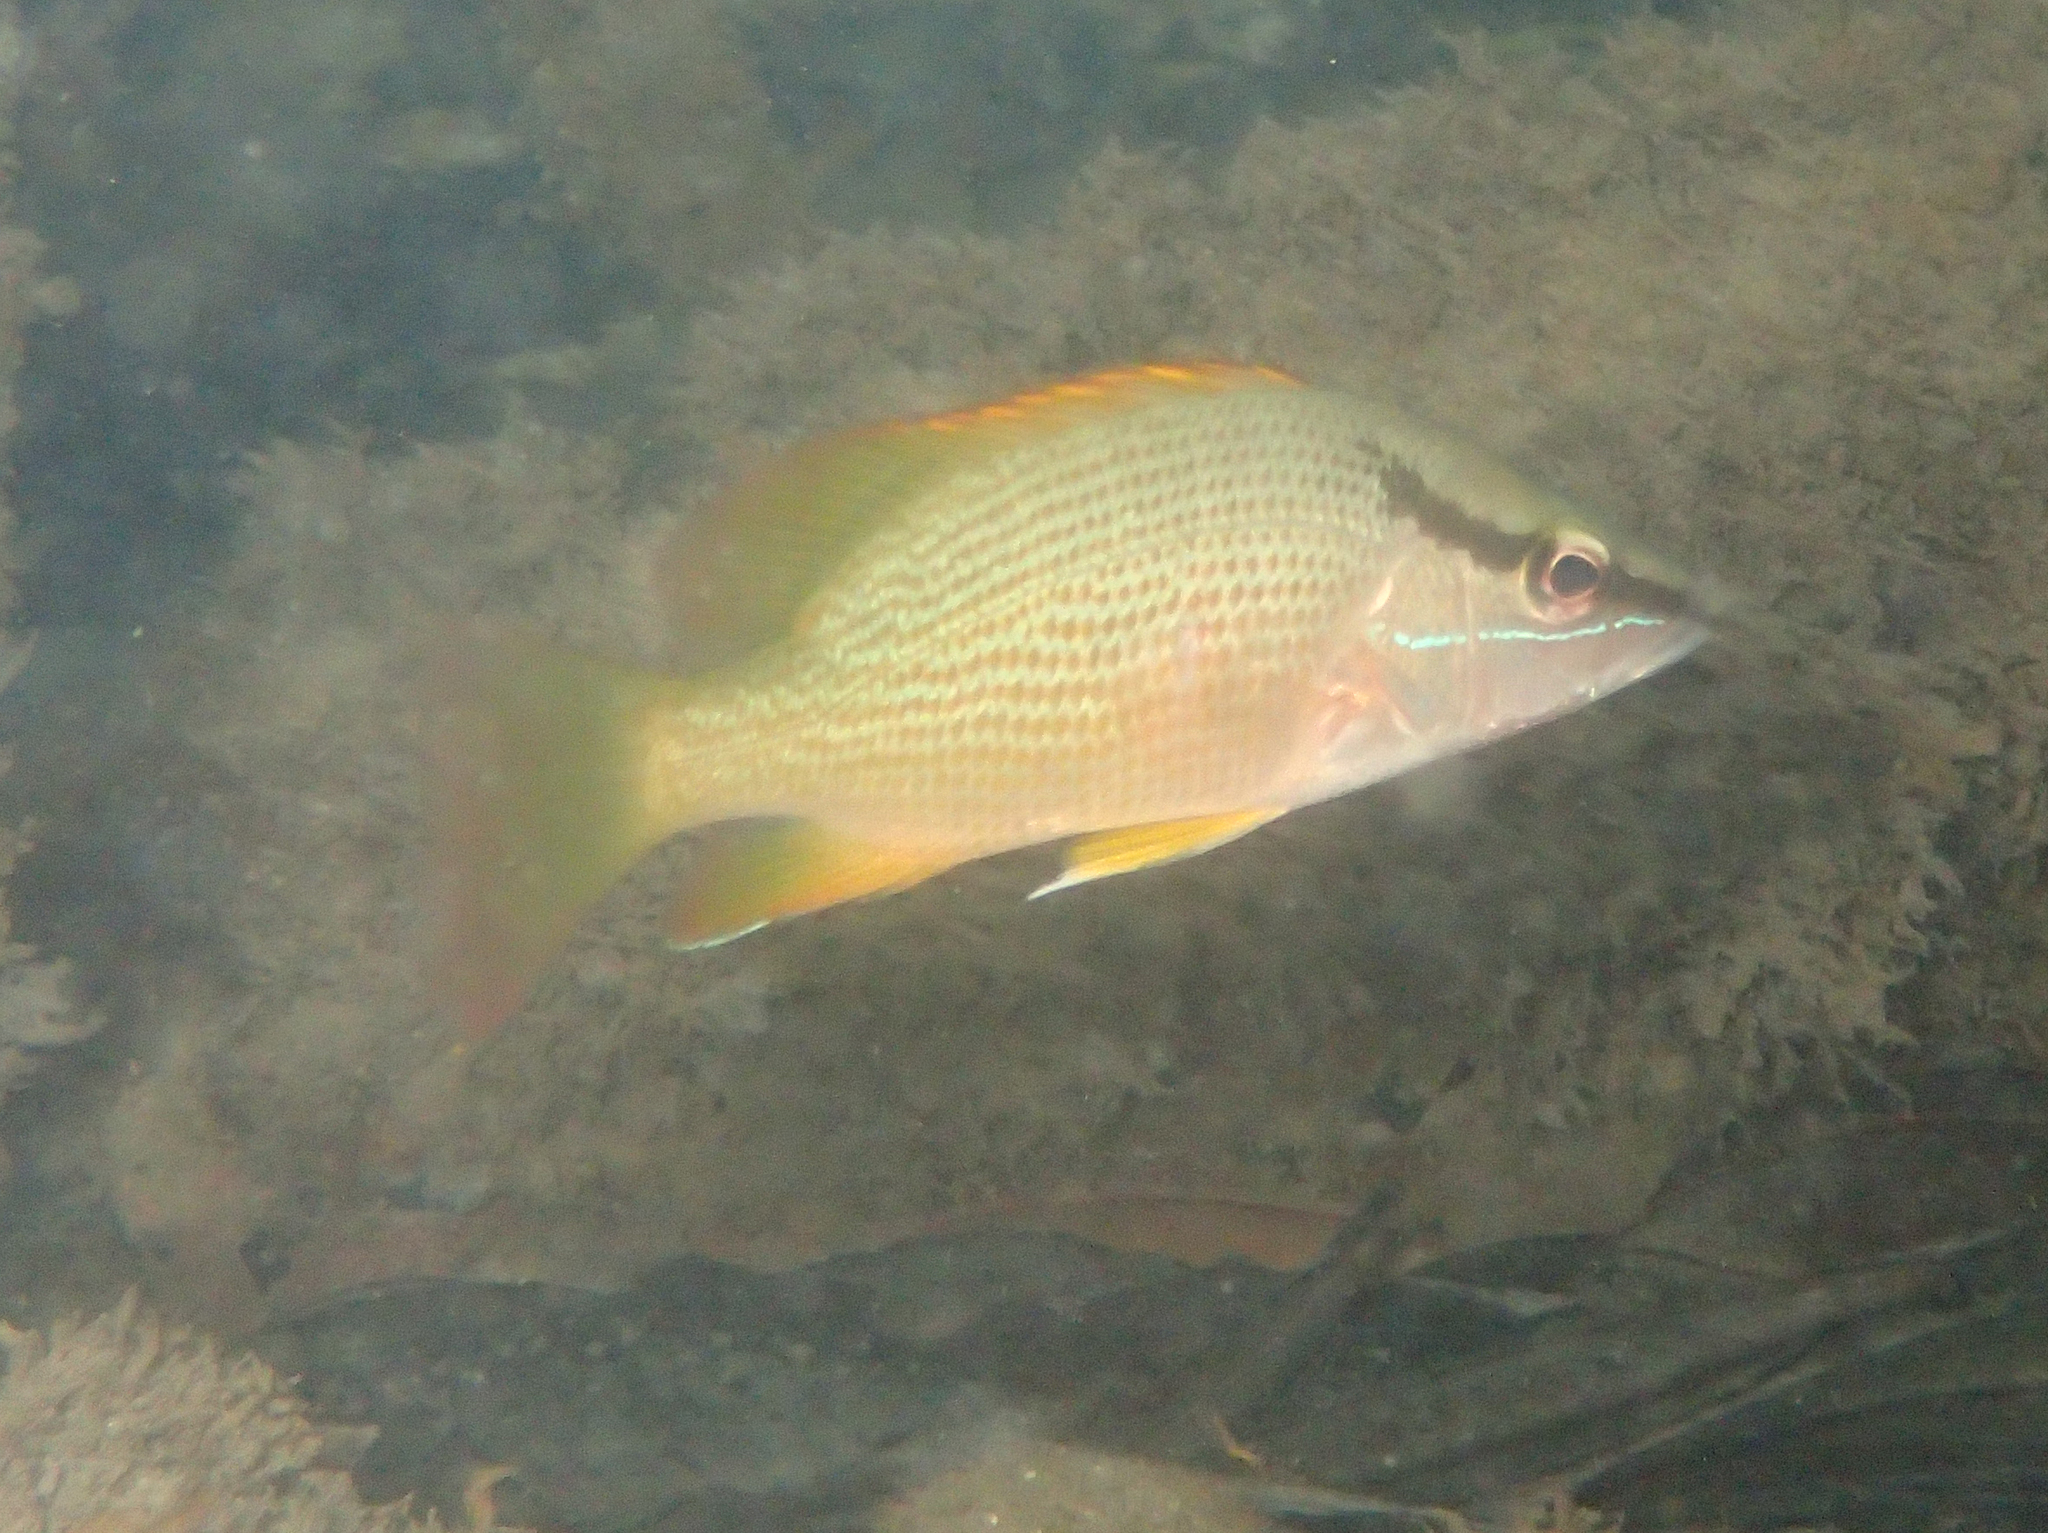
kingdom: Animalia
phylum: Chordata
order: Perciformes
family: Lutjanidae
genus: Lutjanus
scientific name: Lutjanus argentiventris
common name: Yellow snapper
